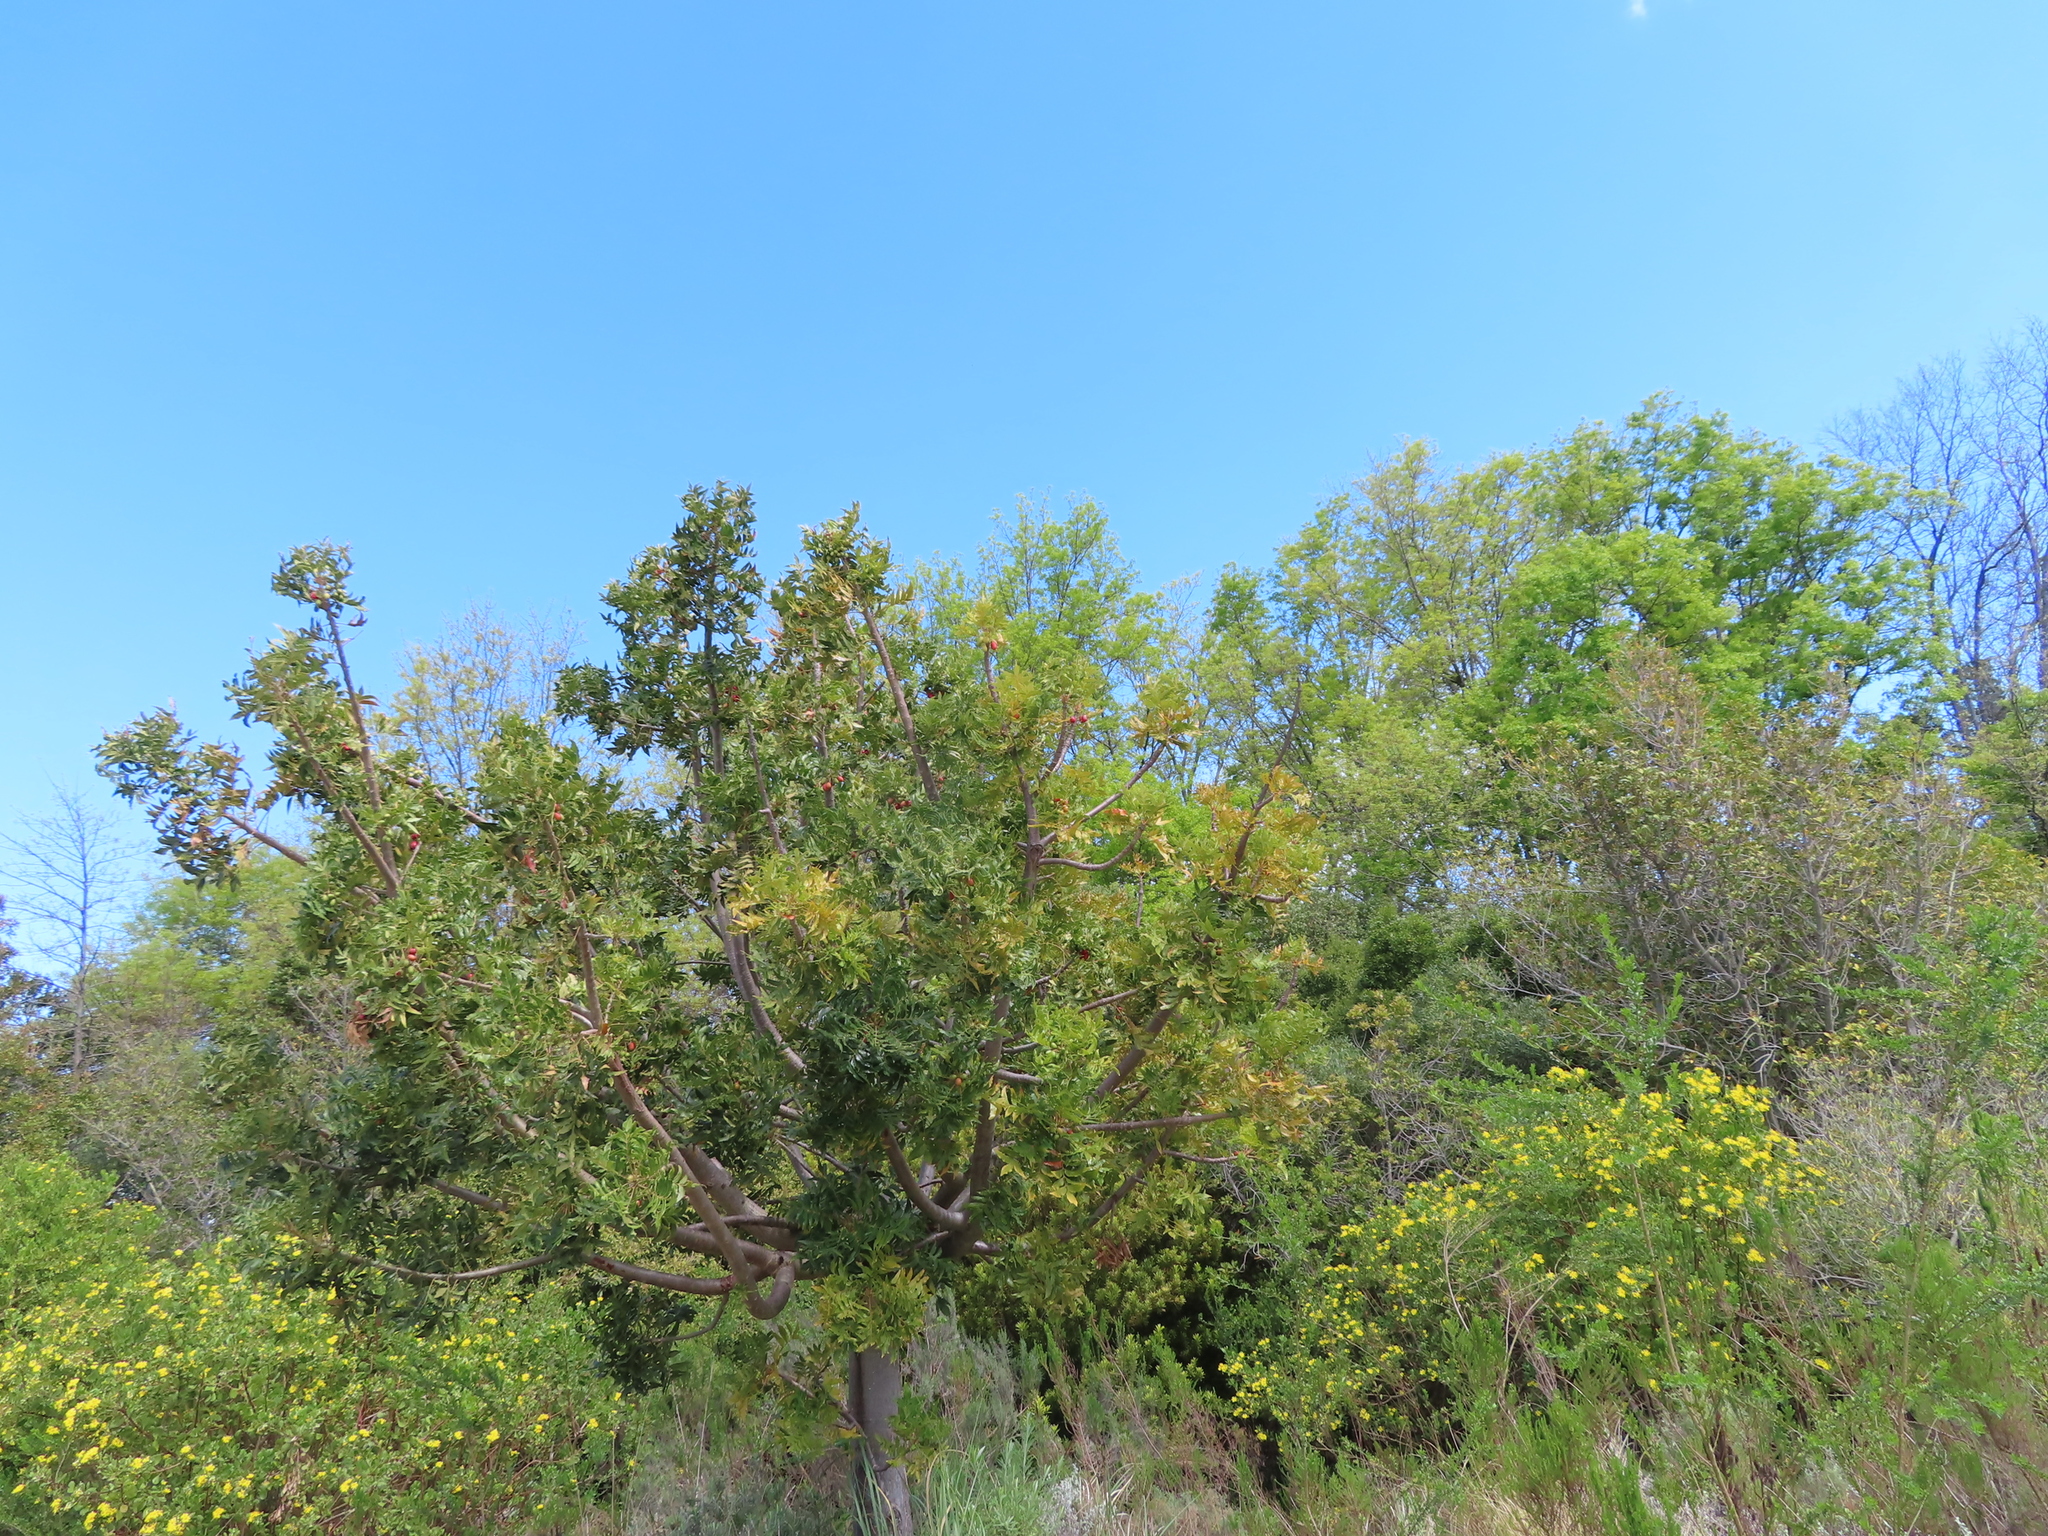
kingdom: Plantae
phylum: Tracheophyta
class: Magnoliopsida
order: Sapindales
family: Anacardiaceae
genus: Harpephyllum
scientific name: Harpephyllum caffrum
